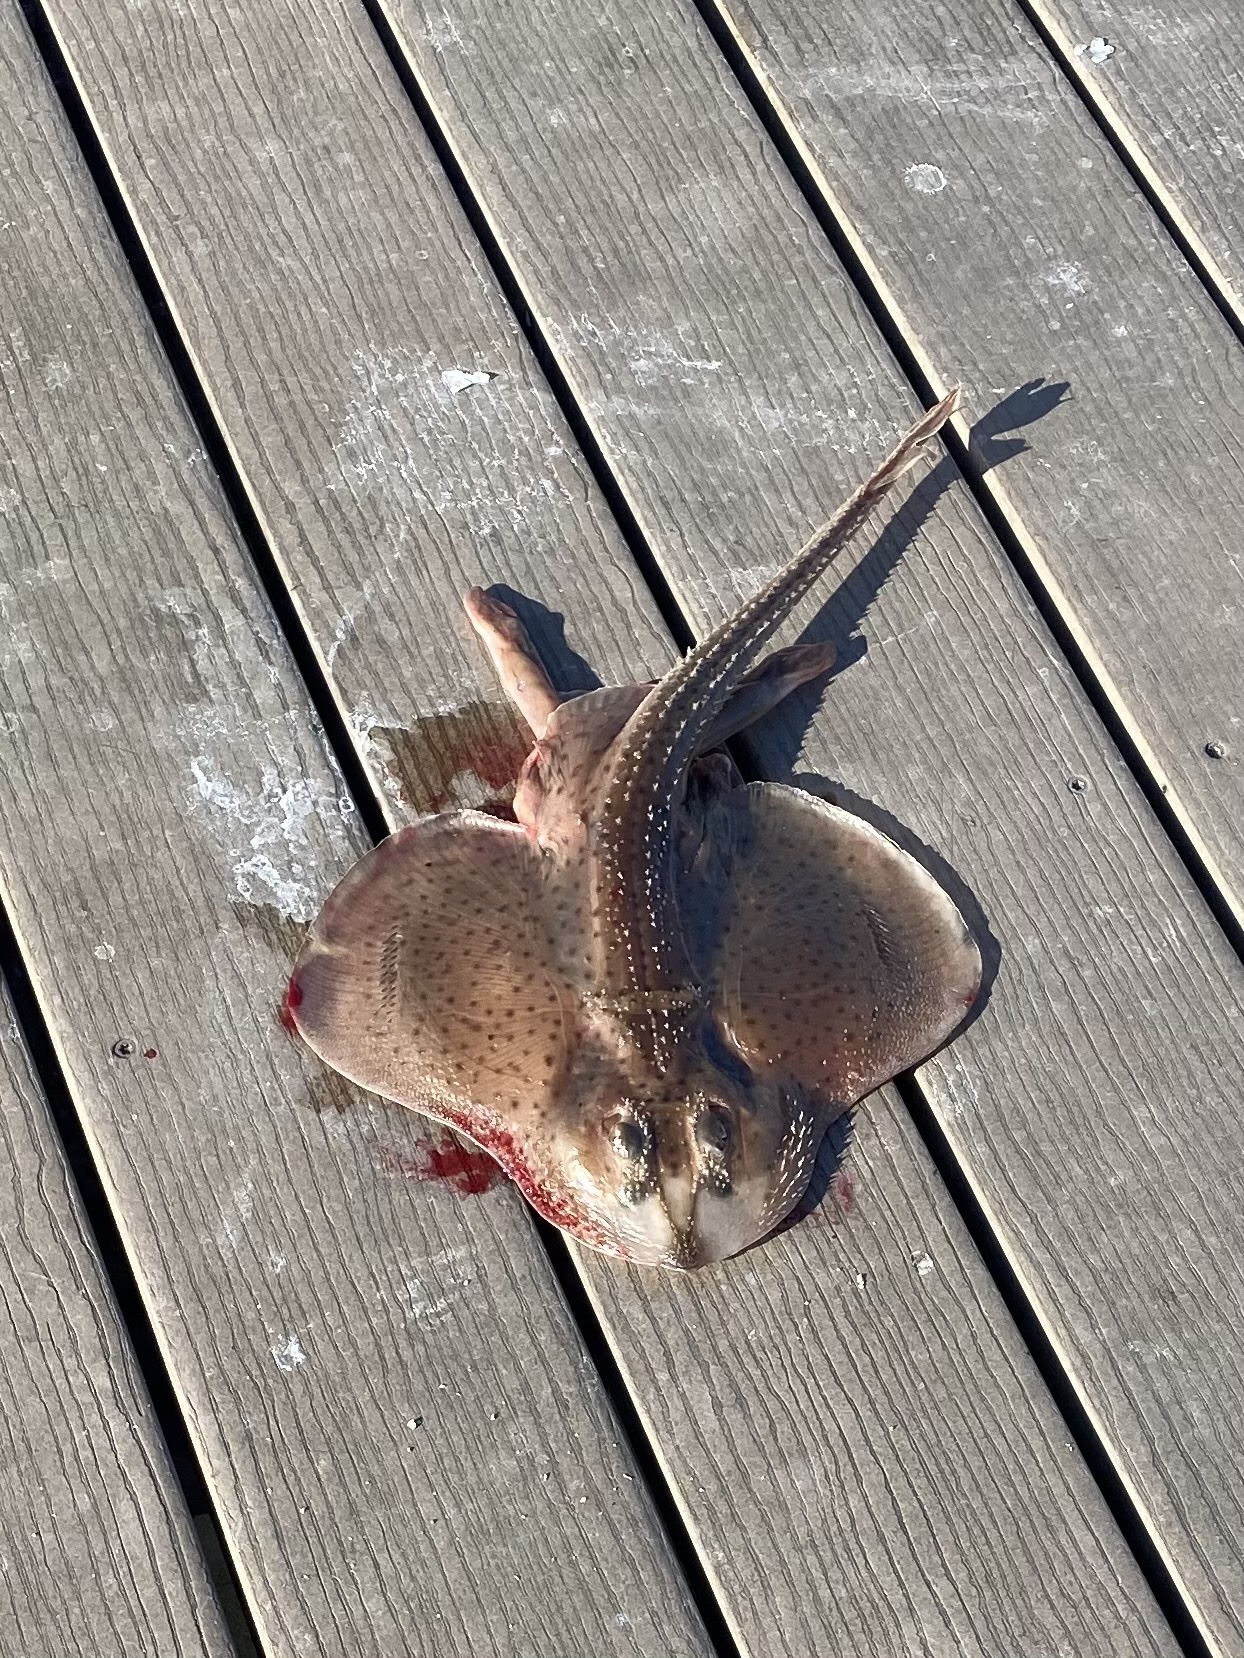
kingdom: Animalia
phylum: Chordata
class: Elasmobranchii
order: Rajiformes
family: Rajidae
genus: Leucoraja
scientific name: Leucoraja erinacea
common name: Little skate
